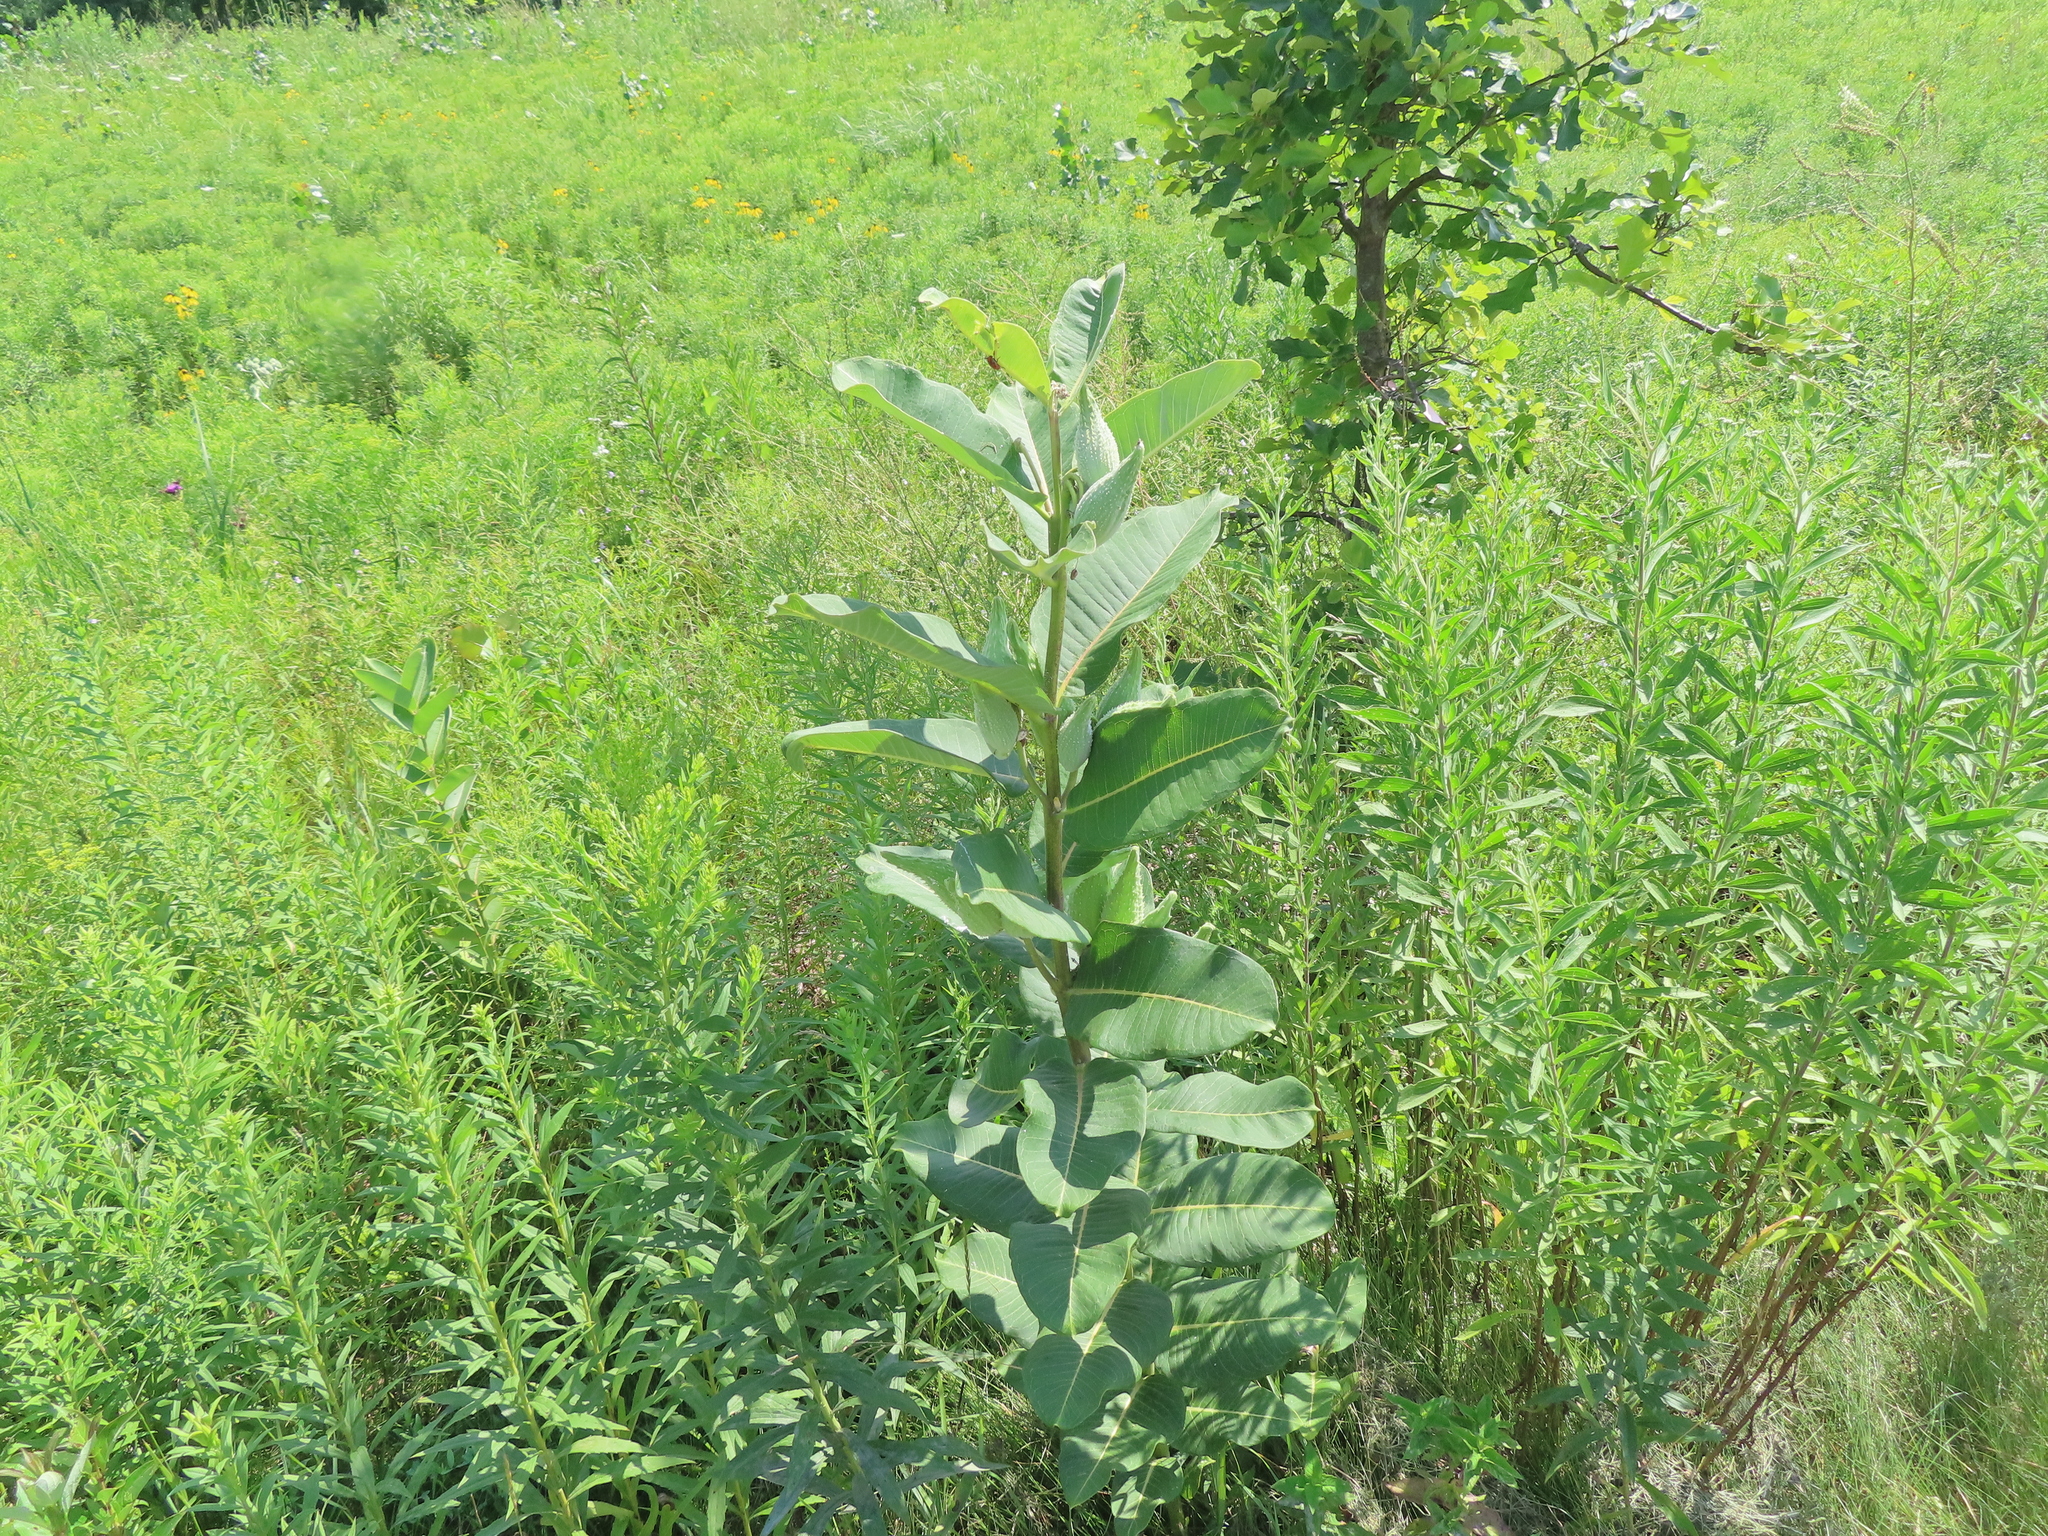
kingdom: Plantae
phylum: Tracheophyta
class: Magnoliopsida
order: Gentianales
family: Apocynaceae
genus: Asclepias
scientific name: Asclepias syriaca
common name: Common milkweed
